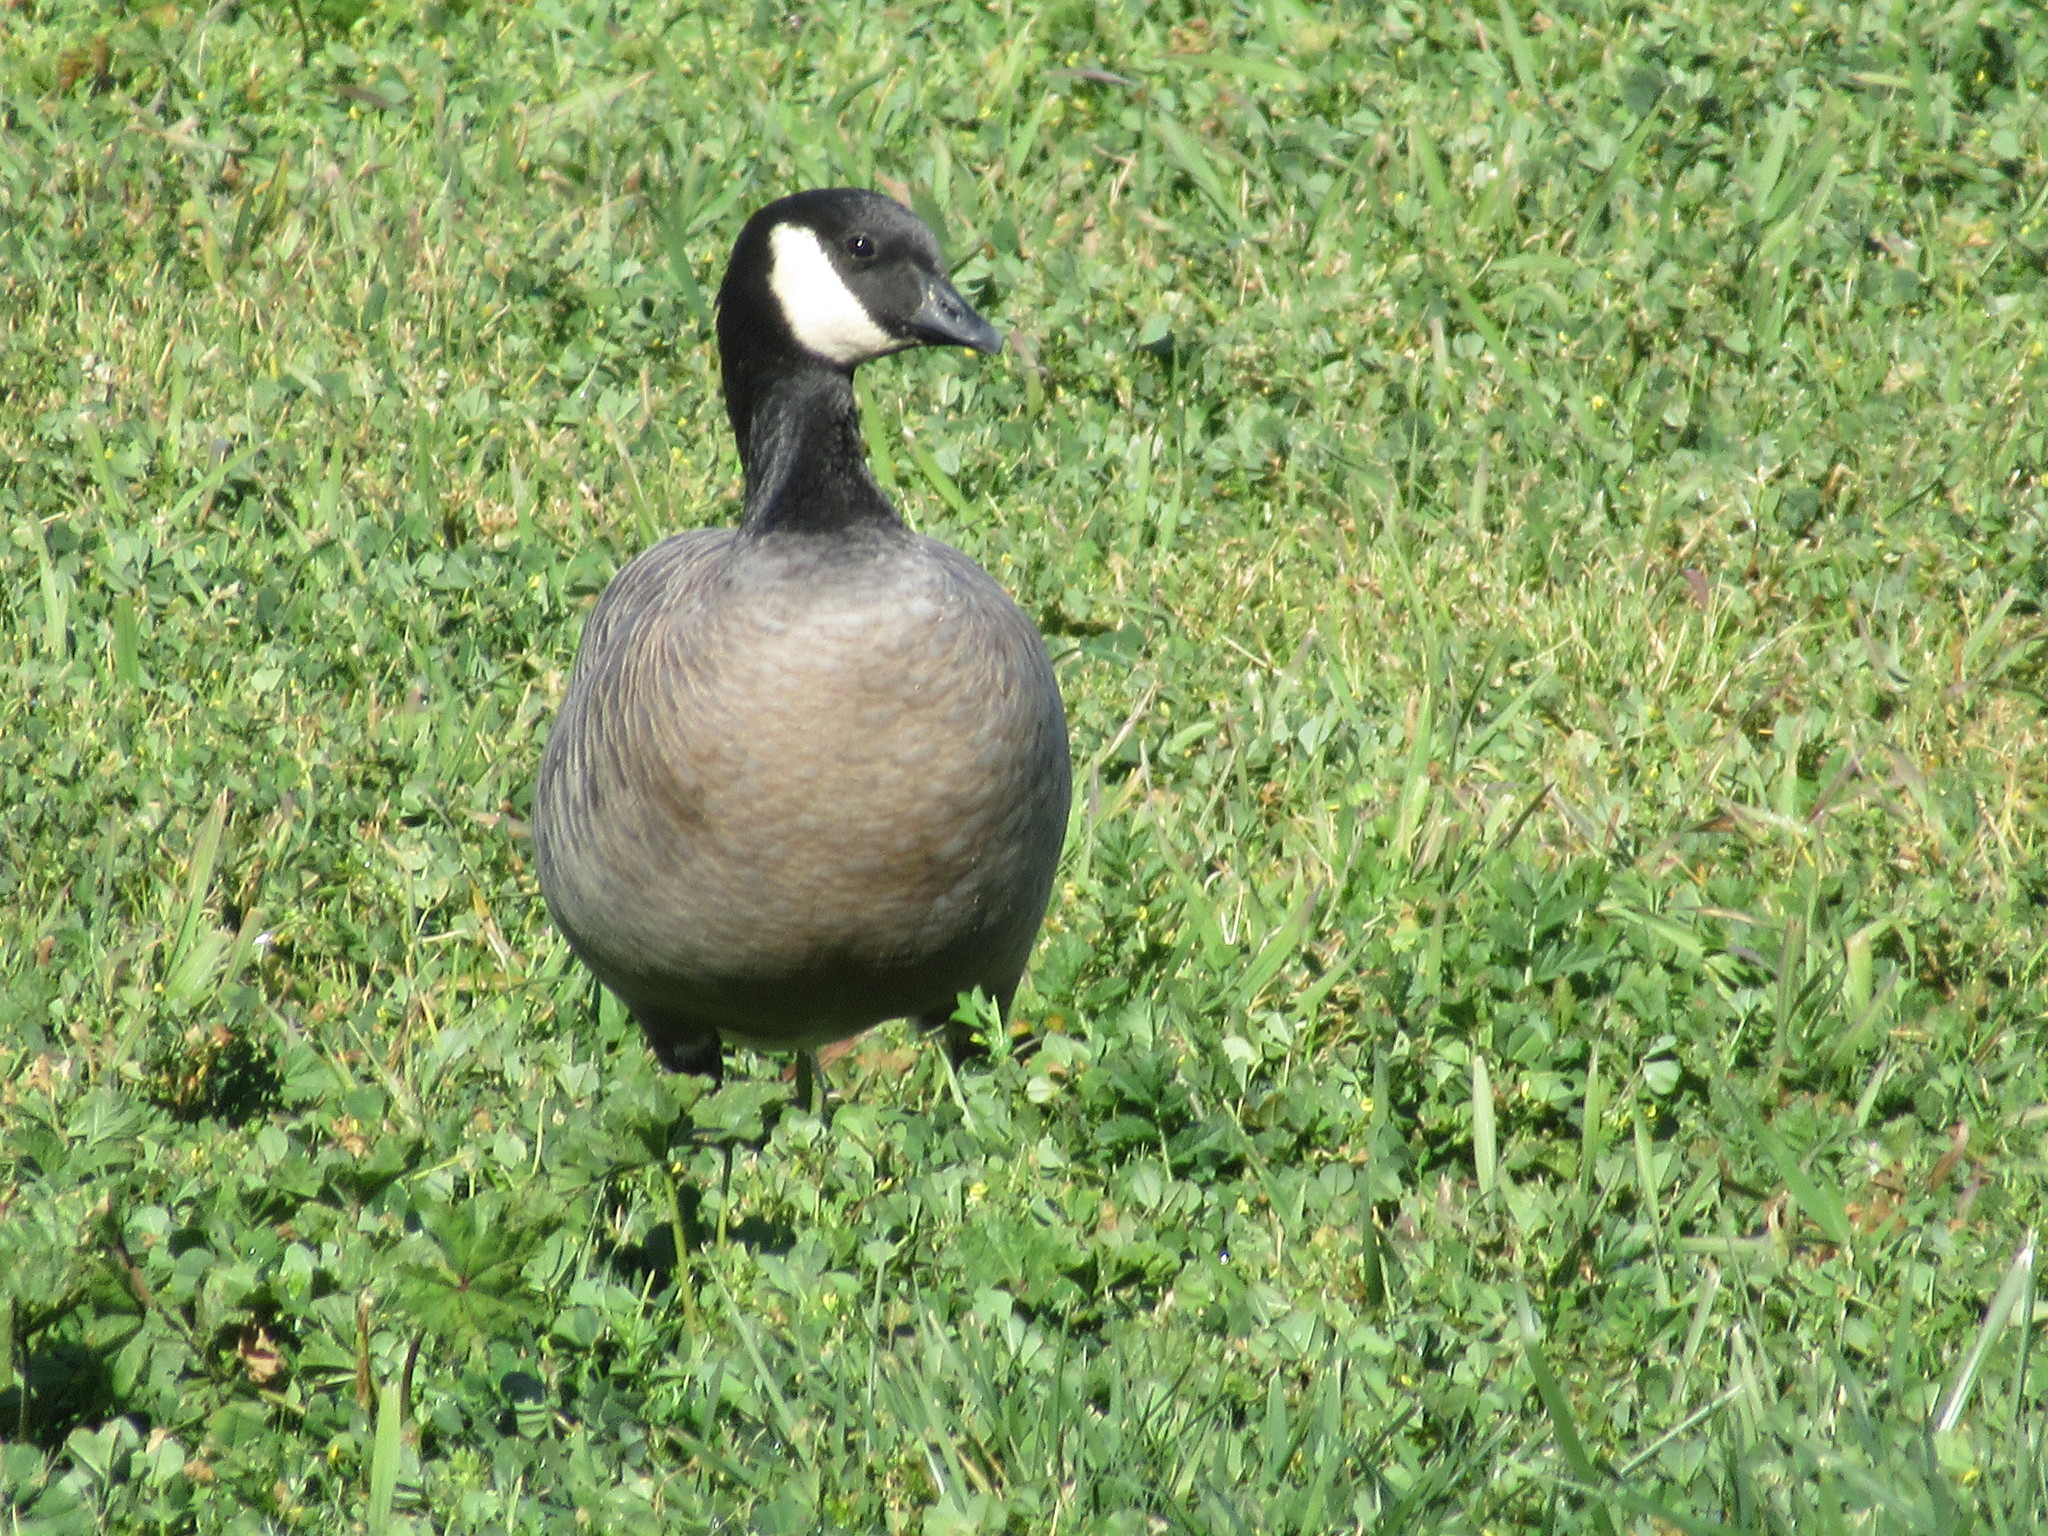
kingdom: Animalia
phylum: Chordata
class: Aves
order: Anseriformes
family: Anatidae
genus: Branta
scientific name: Branta hutchinsii
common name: Cackling goose
